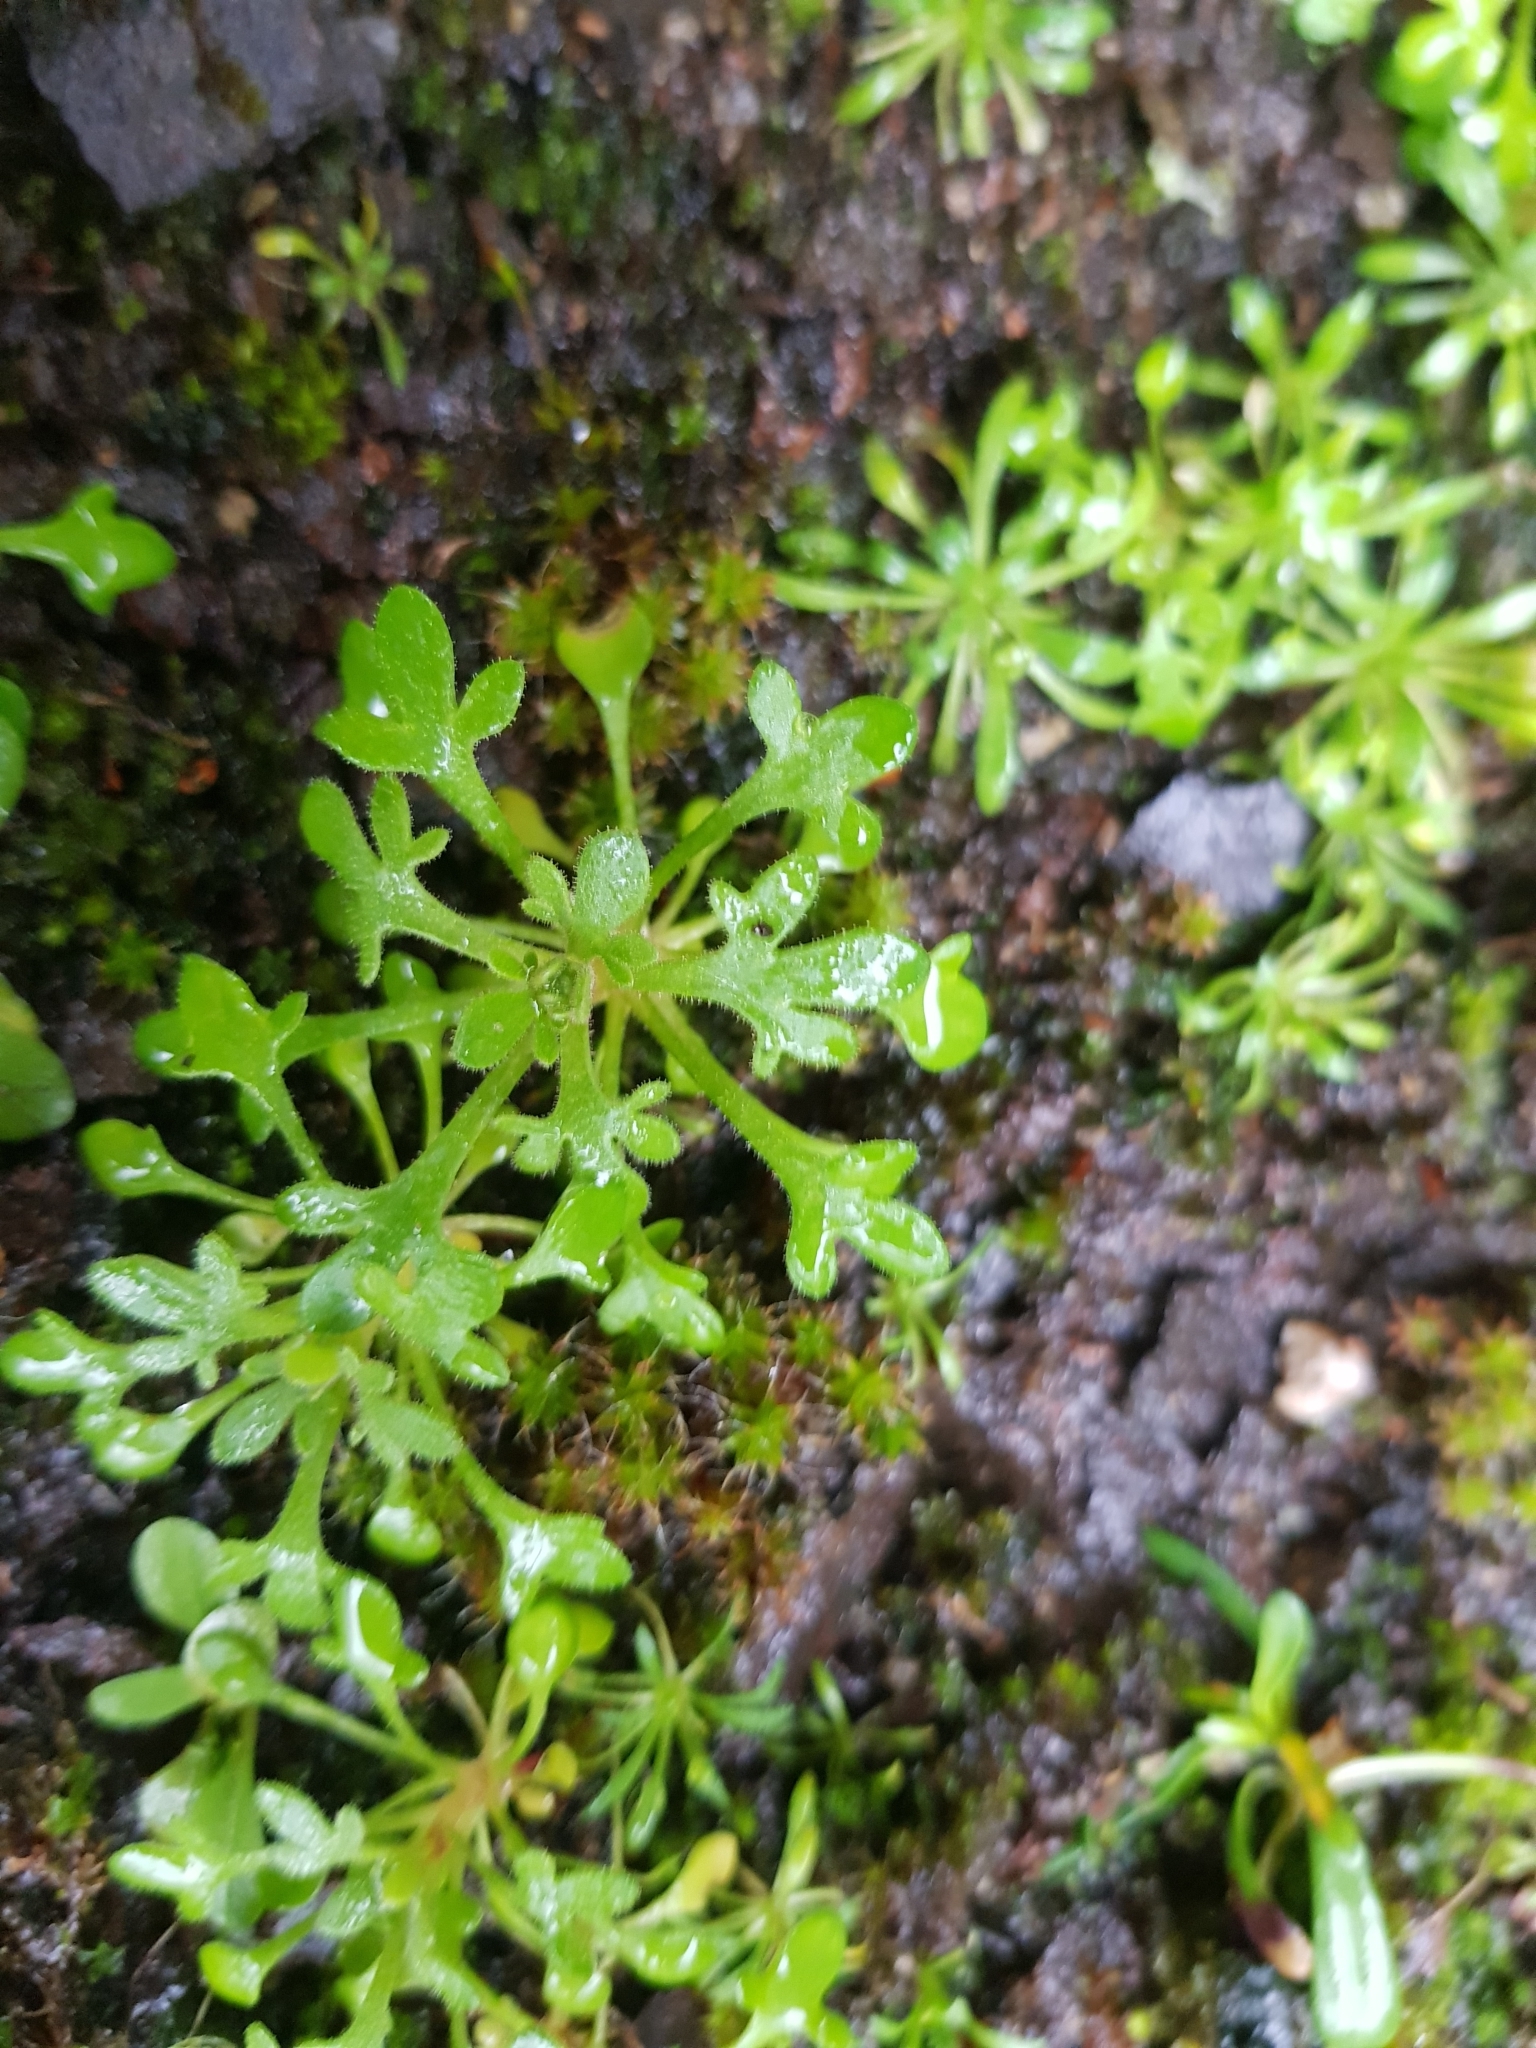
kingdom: Plantae
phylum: Tracheophyta
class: Magnoliopsida
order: Saxifragales
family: Saxifragaceae
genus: Saxifraga
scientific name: Saxifraga tridactylites
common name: Rue-leaved saxifrage
